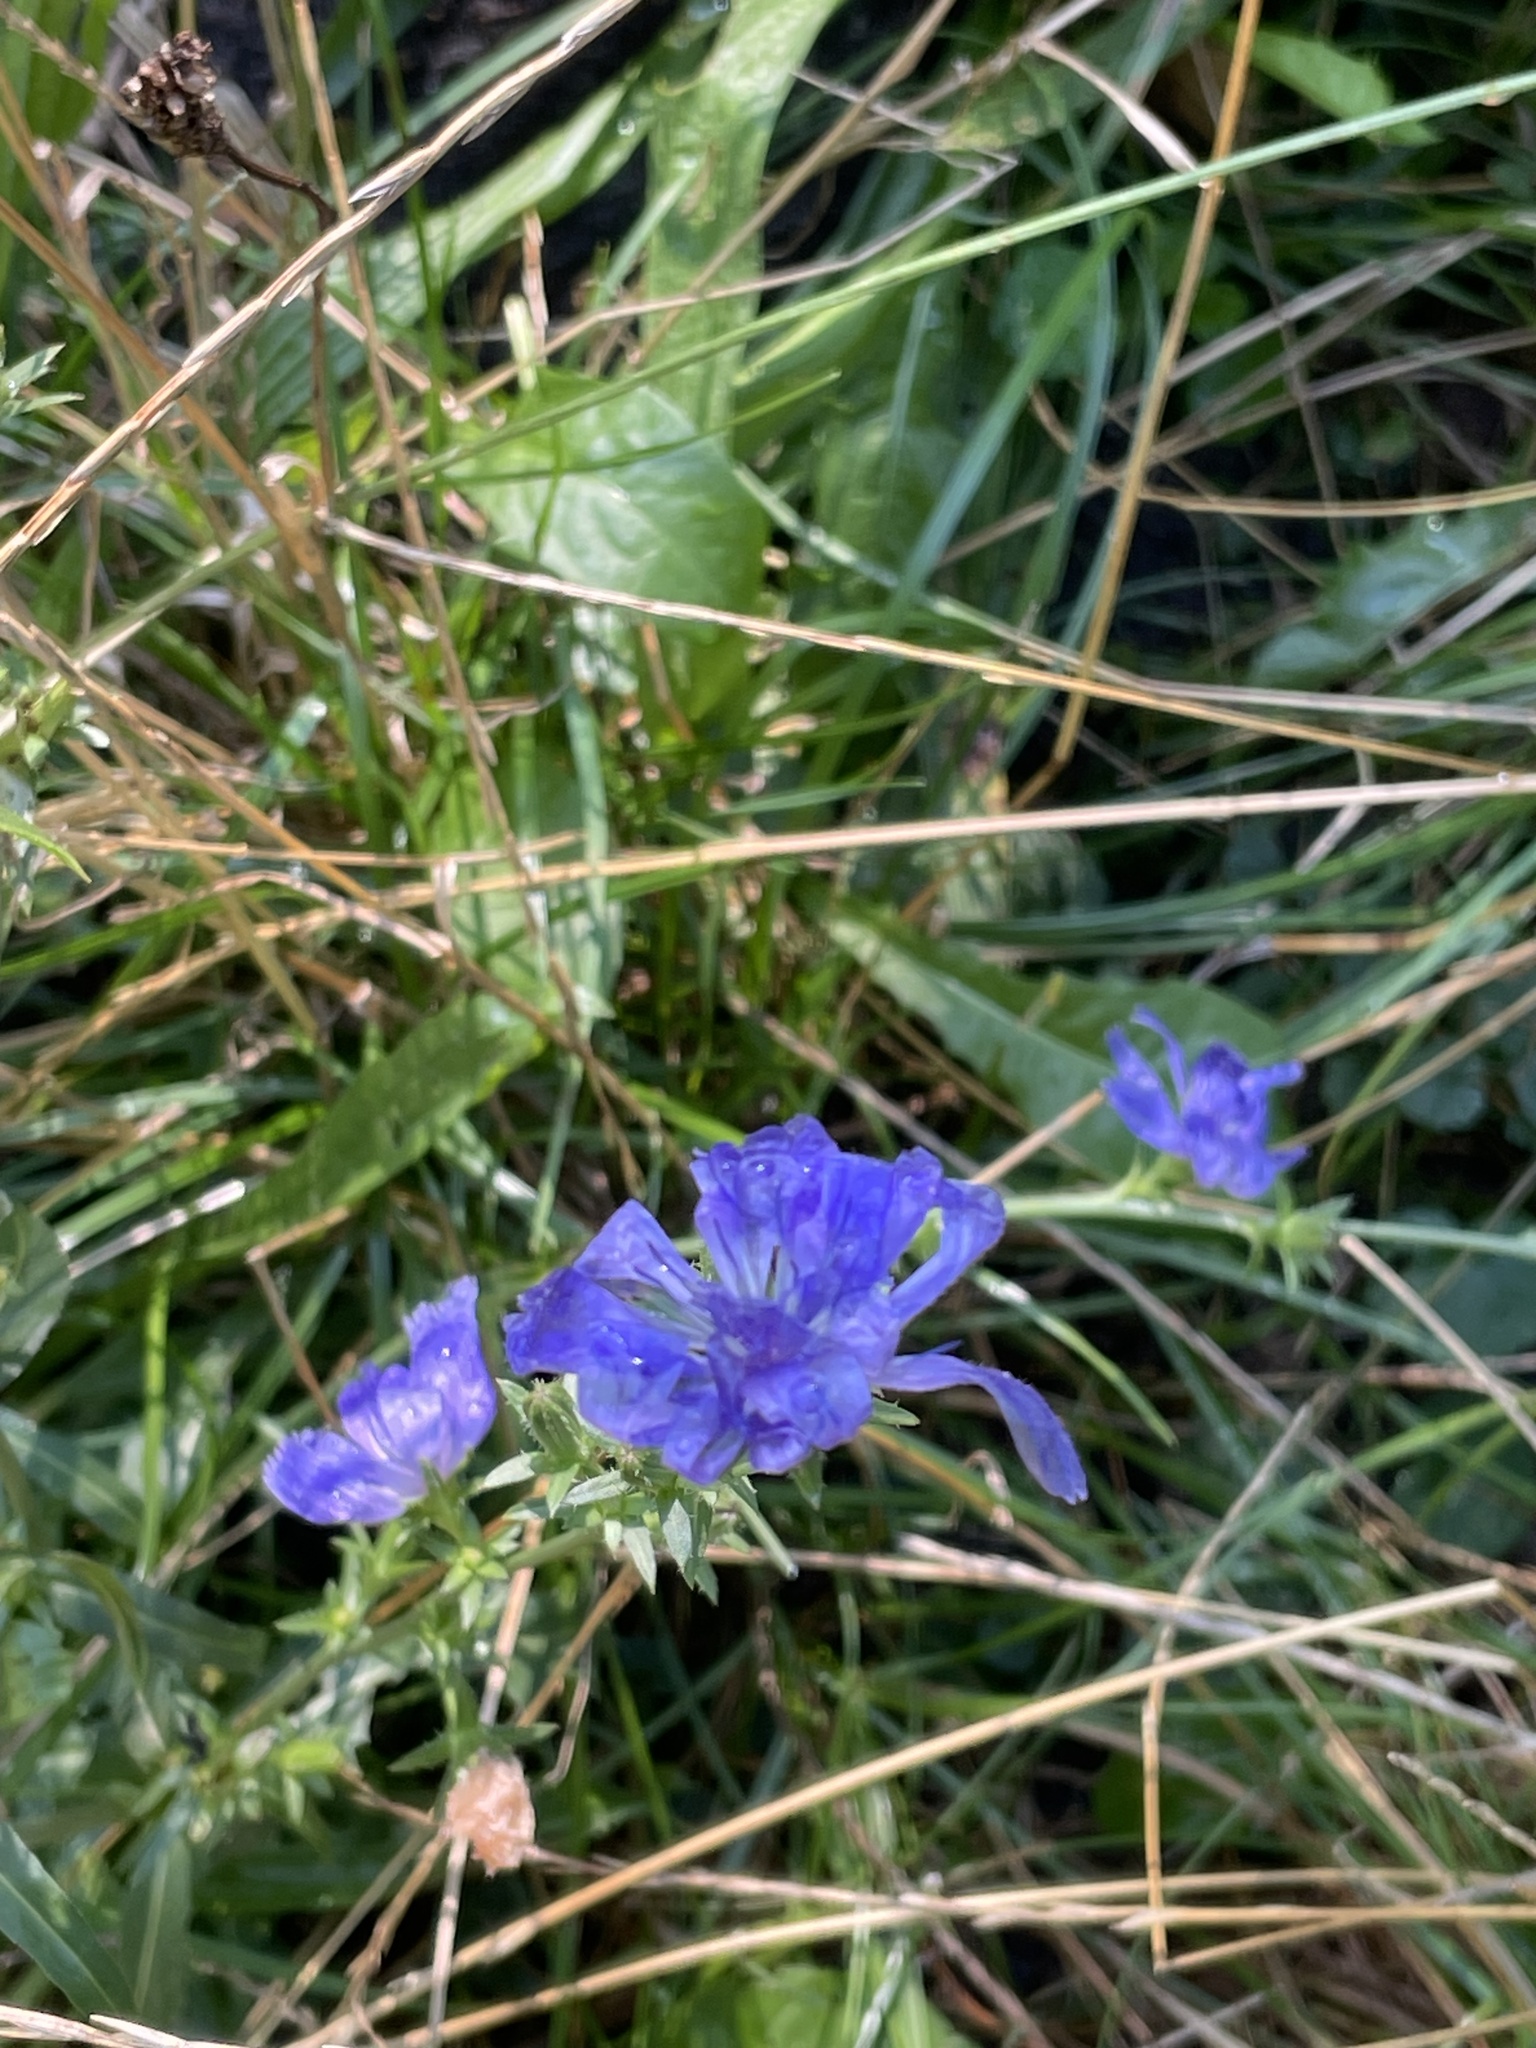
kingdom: Plantae
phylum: Tracheophyta
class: Magnoliopsida
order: Asterales
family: Asteraceae
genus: Cichorium
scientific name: Cichorium intybus
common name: Chicory
